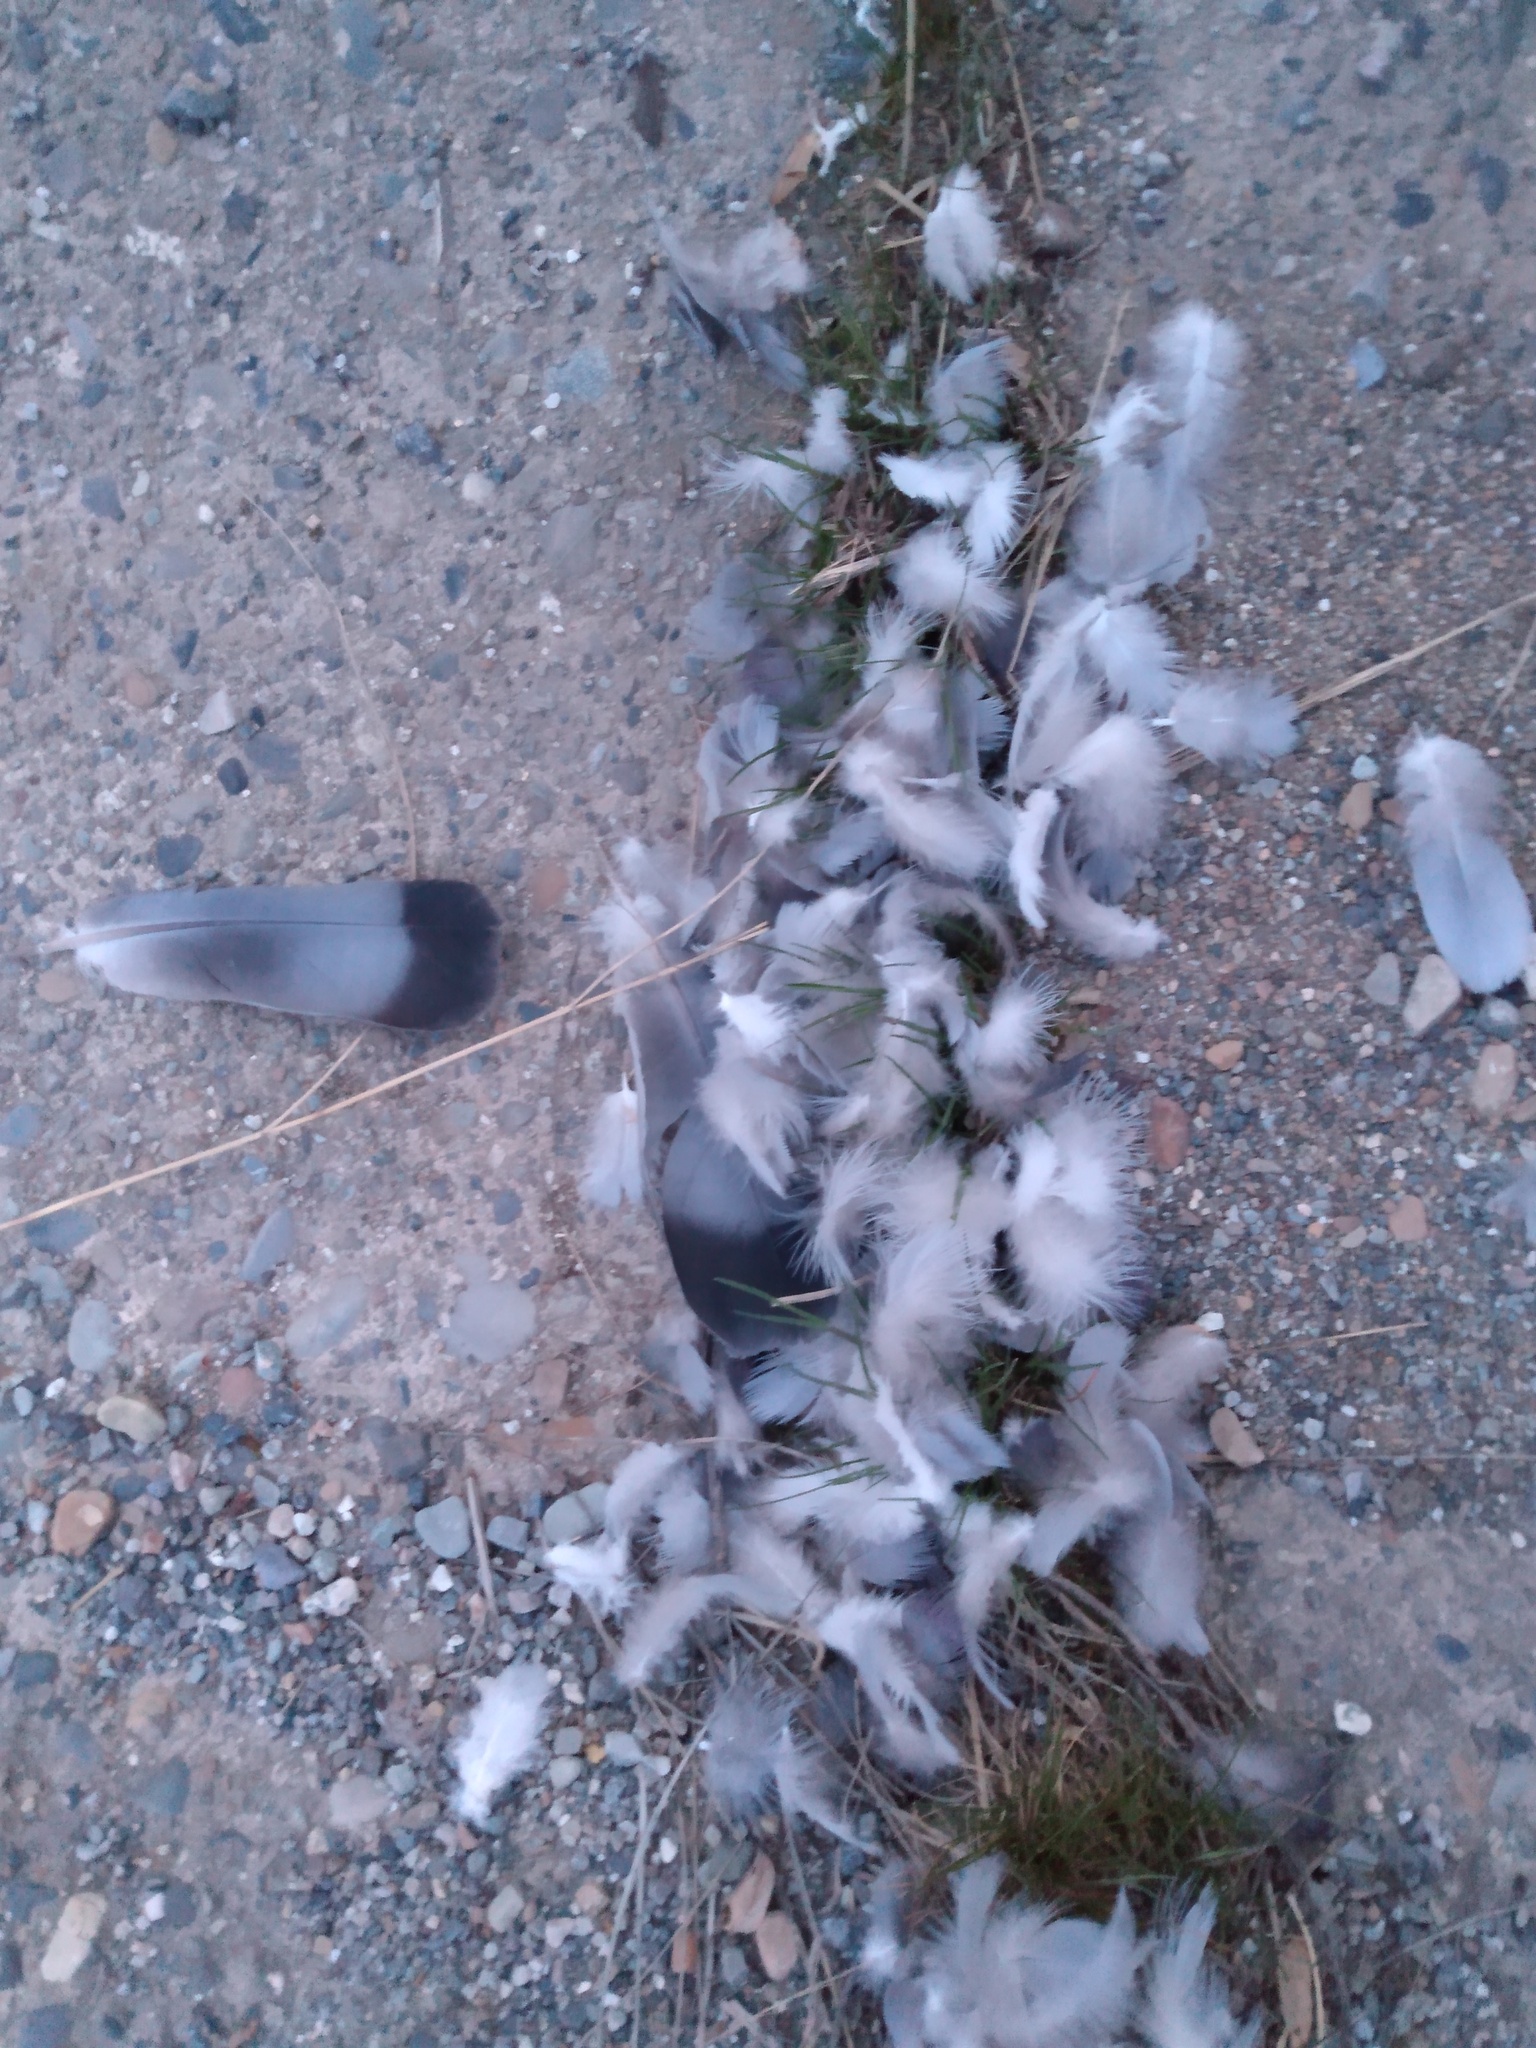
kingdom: Animalia
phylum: Chordata
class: Aves
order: Columbiformes
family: Columbidae
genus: Columba
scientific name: Columba livia
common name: Rock pigeon
